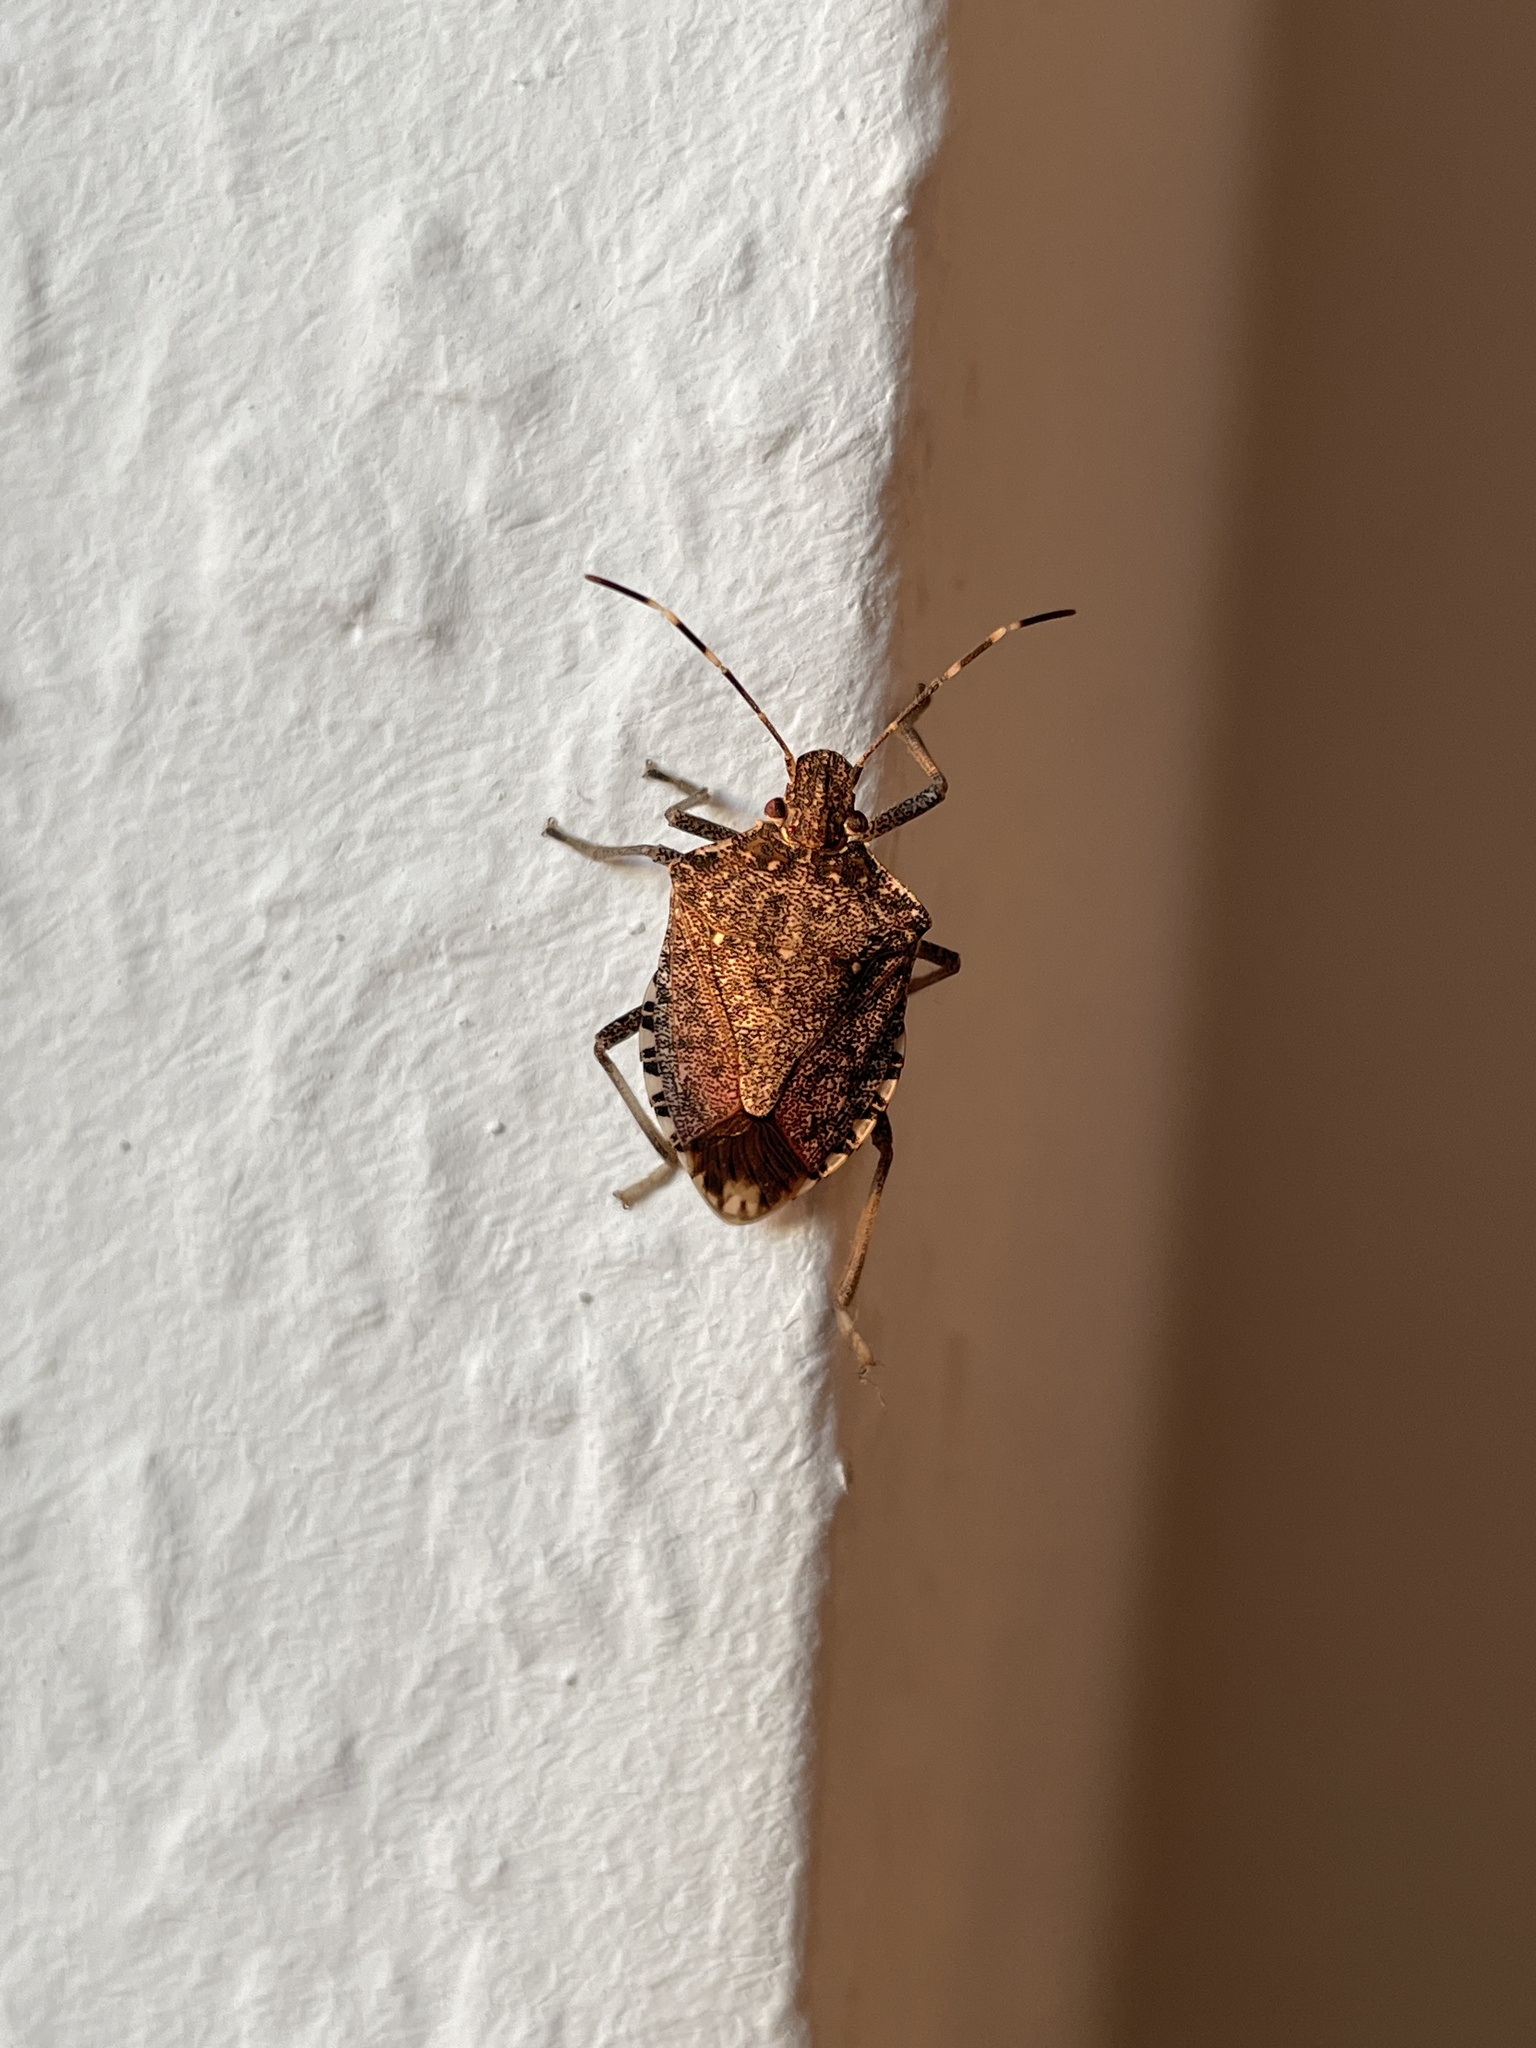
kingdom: Animalia
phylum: Arthropoda
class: Insecta
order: Hemiptera
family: Pentatomidae
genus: Halyomorpha
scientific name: Halyomorpha halys
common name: Brown marmorated stink bug
